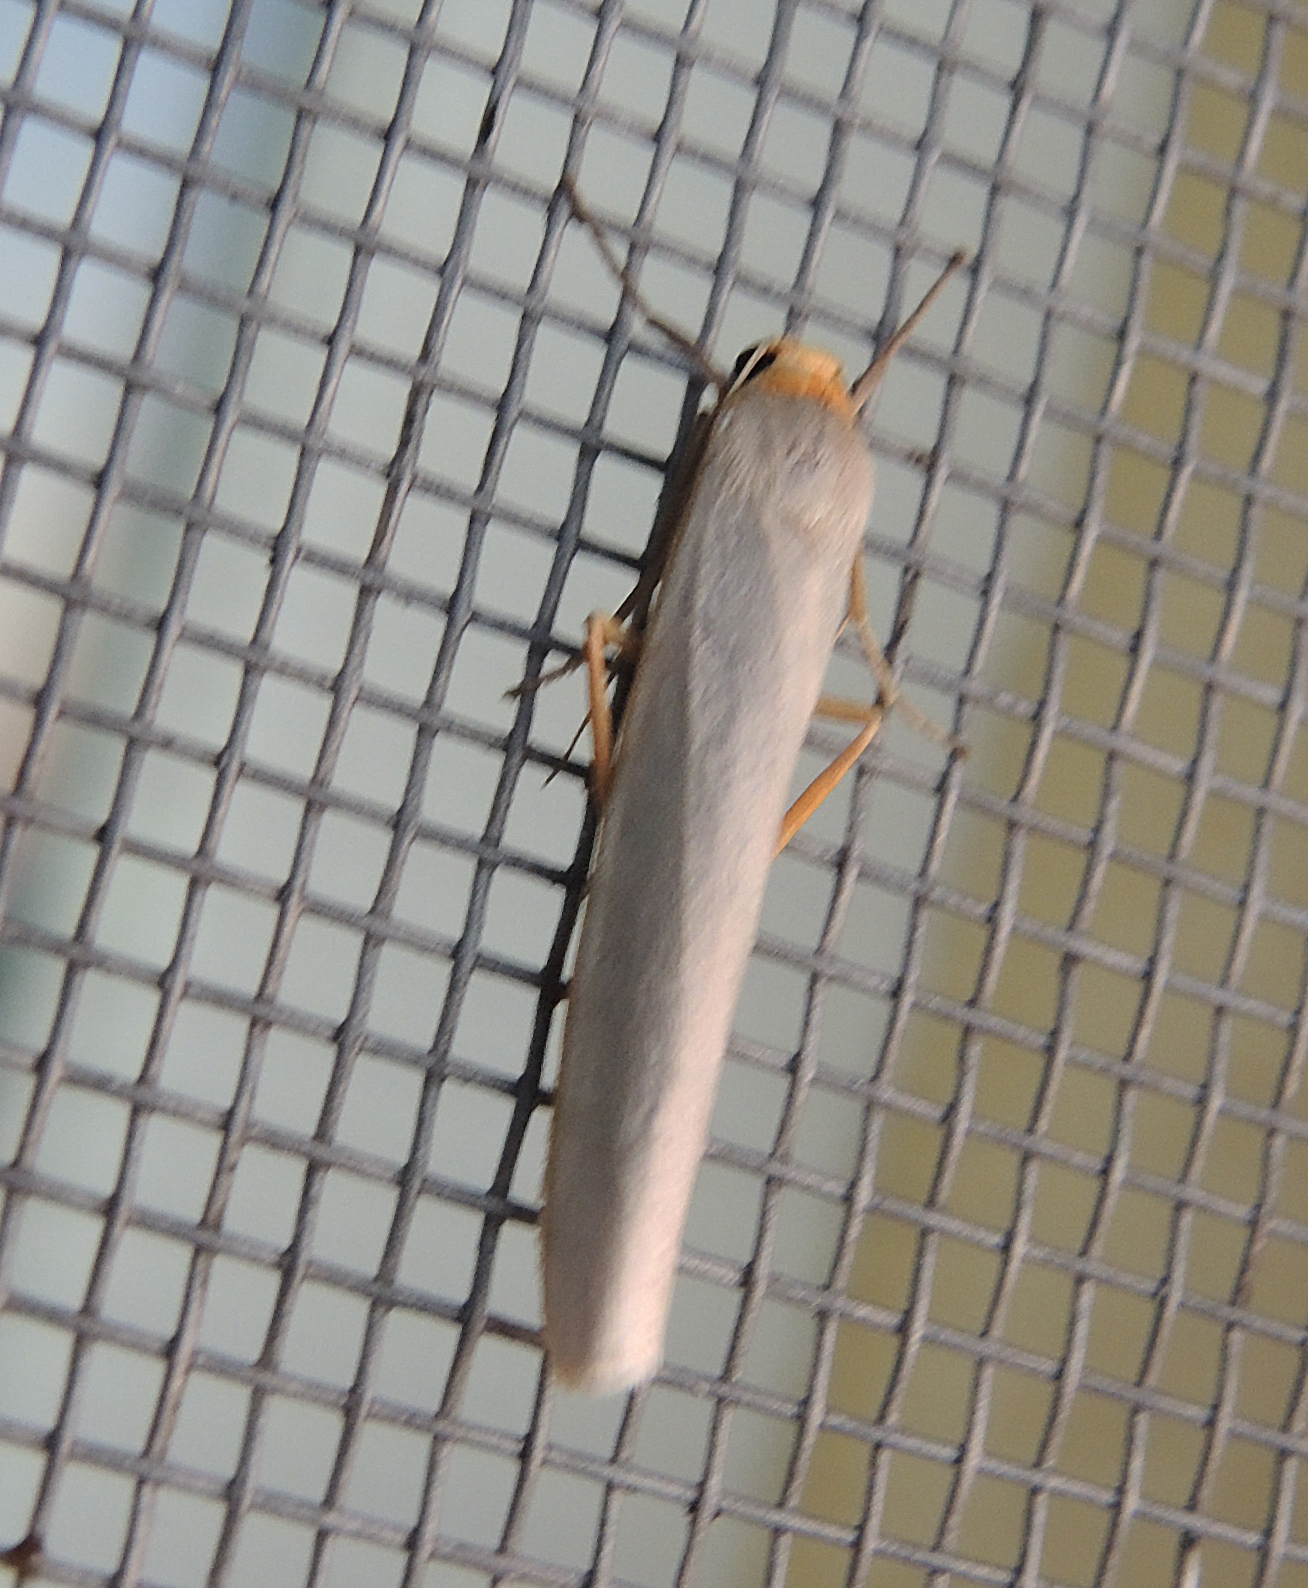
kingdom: Animalia
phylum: Arthropoda
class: Insecta
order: Lepidoptera
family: Erebidae
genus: Eilema
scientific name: Eilema caniola
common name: Hoary footman
